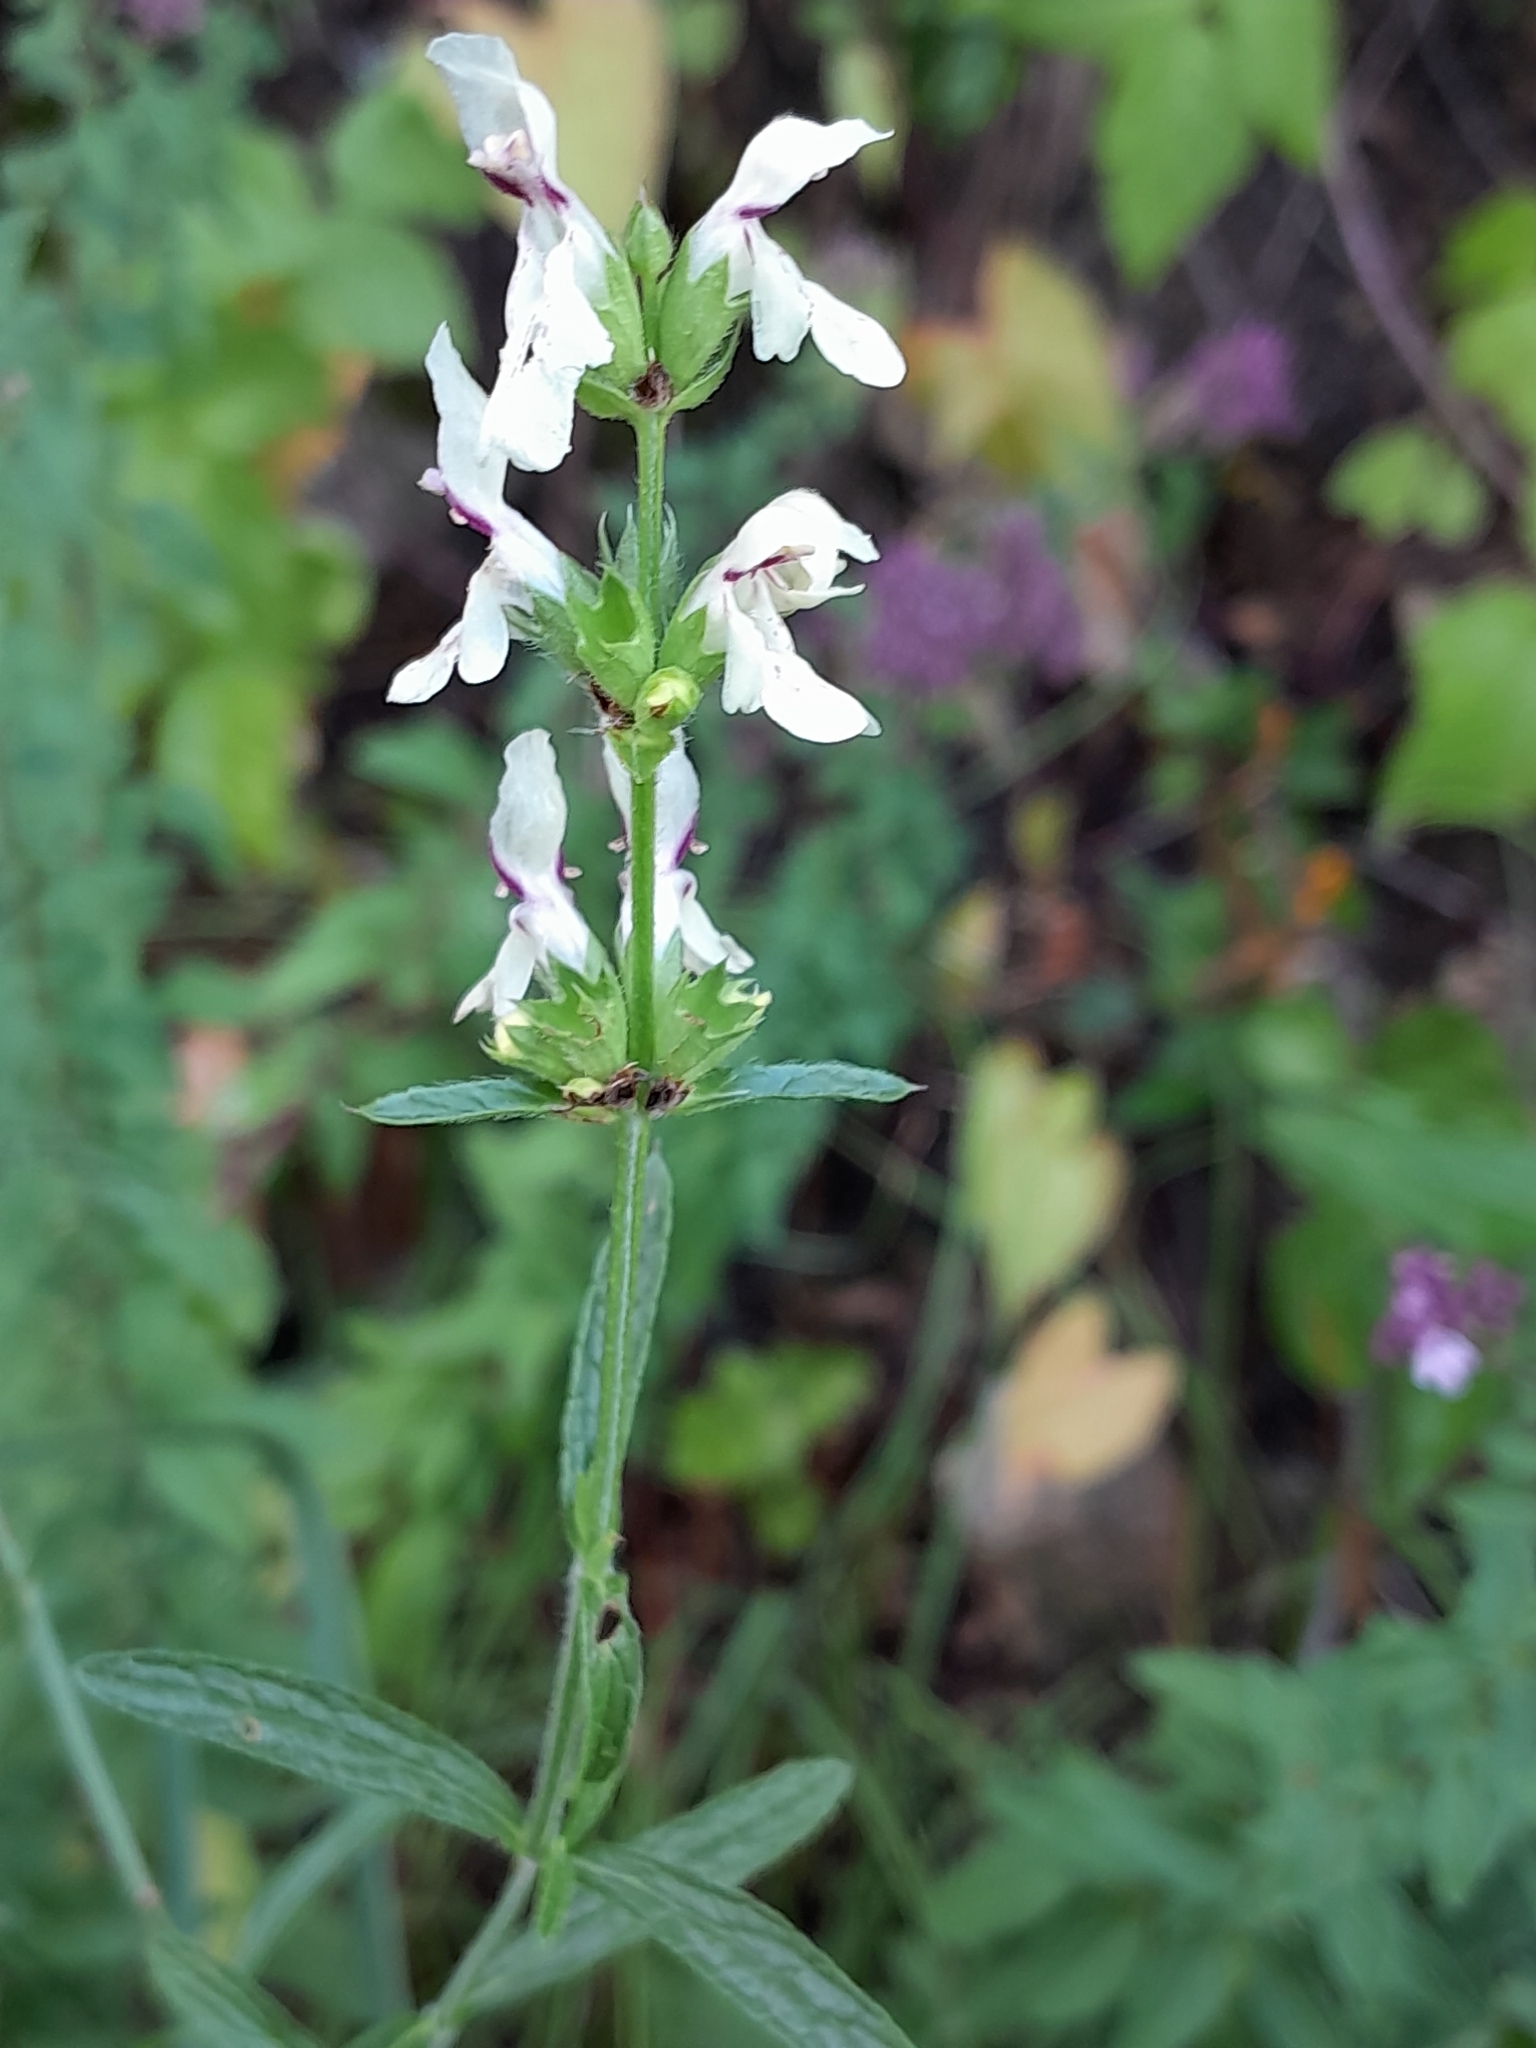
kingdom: Plantae
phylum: Tracheophyta
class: Magnoliopsida
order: Lamiales
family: Lamiaceae
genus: Stachys
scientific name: Stachys recta
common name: Perennial yellow-woundwort
